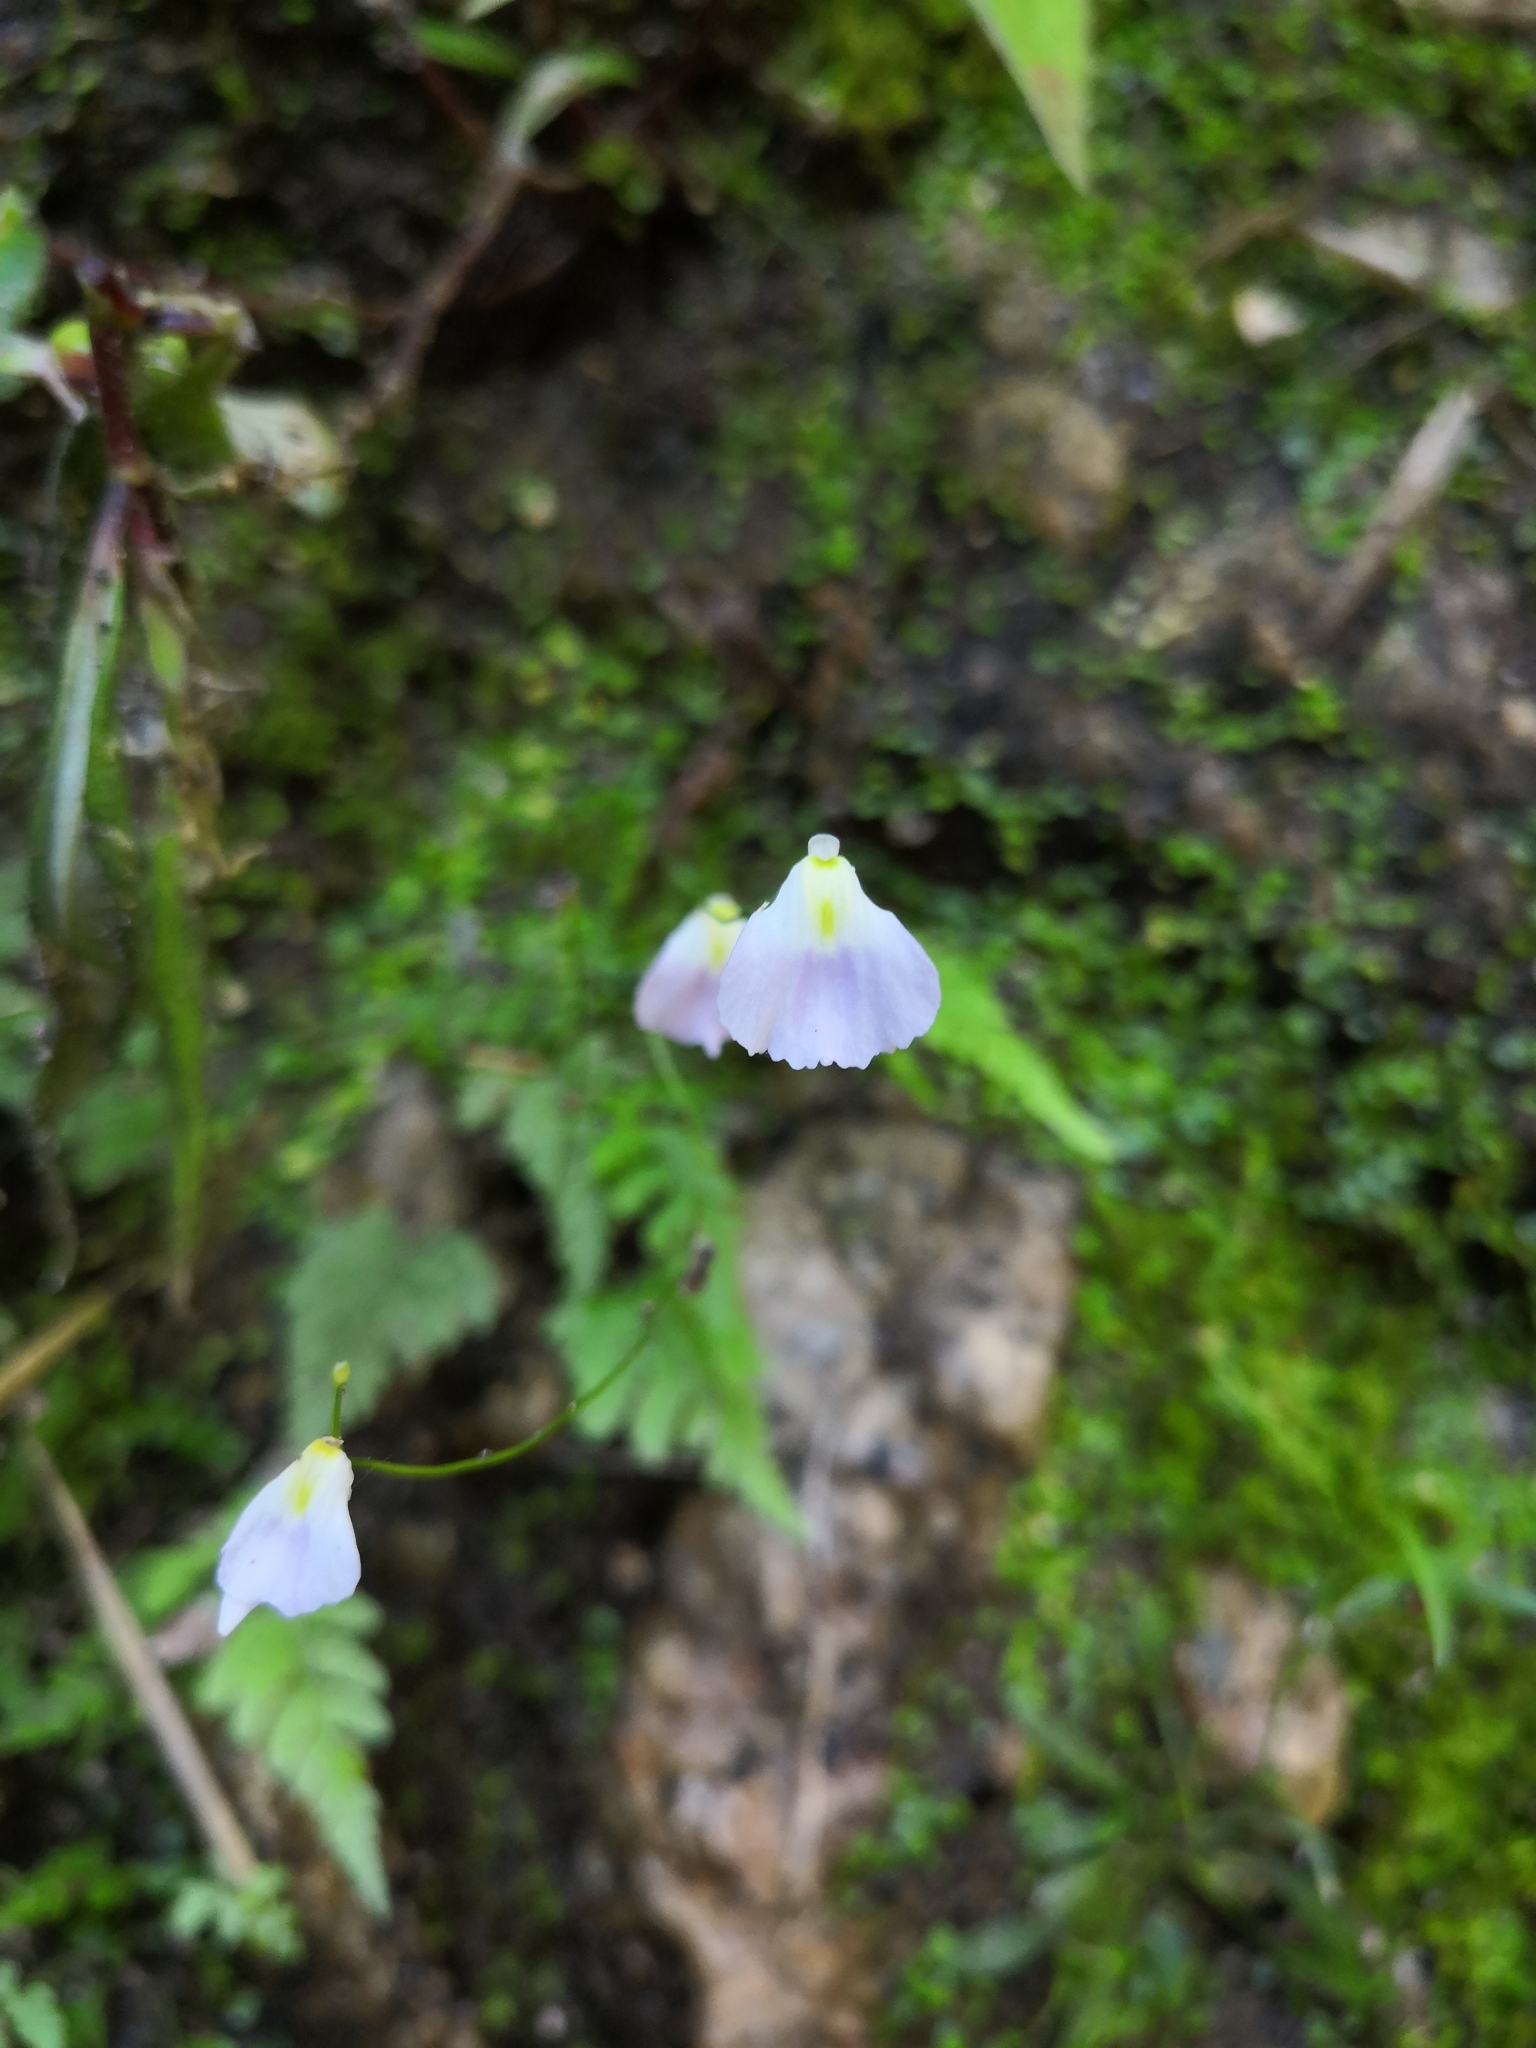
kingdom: Plantae
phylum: Tracheophyta
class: Magnoliopsida
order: Lamiales
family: Lentibulariaceae
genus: Utricularia
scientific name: Utricularia livida
